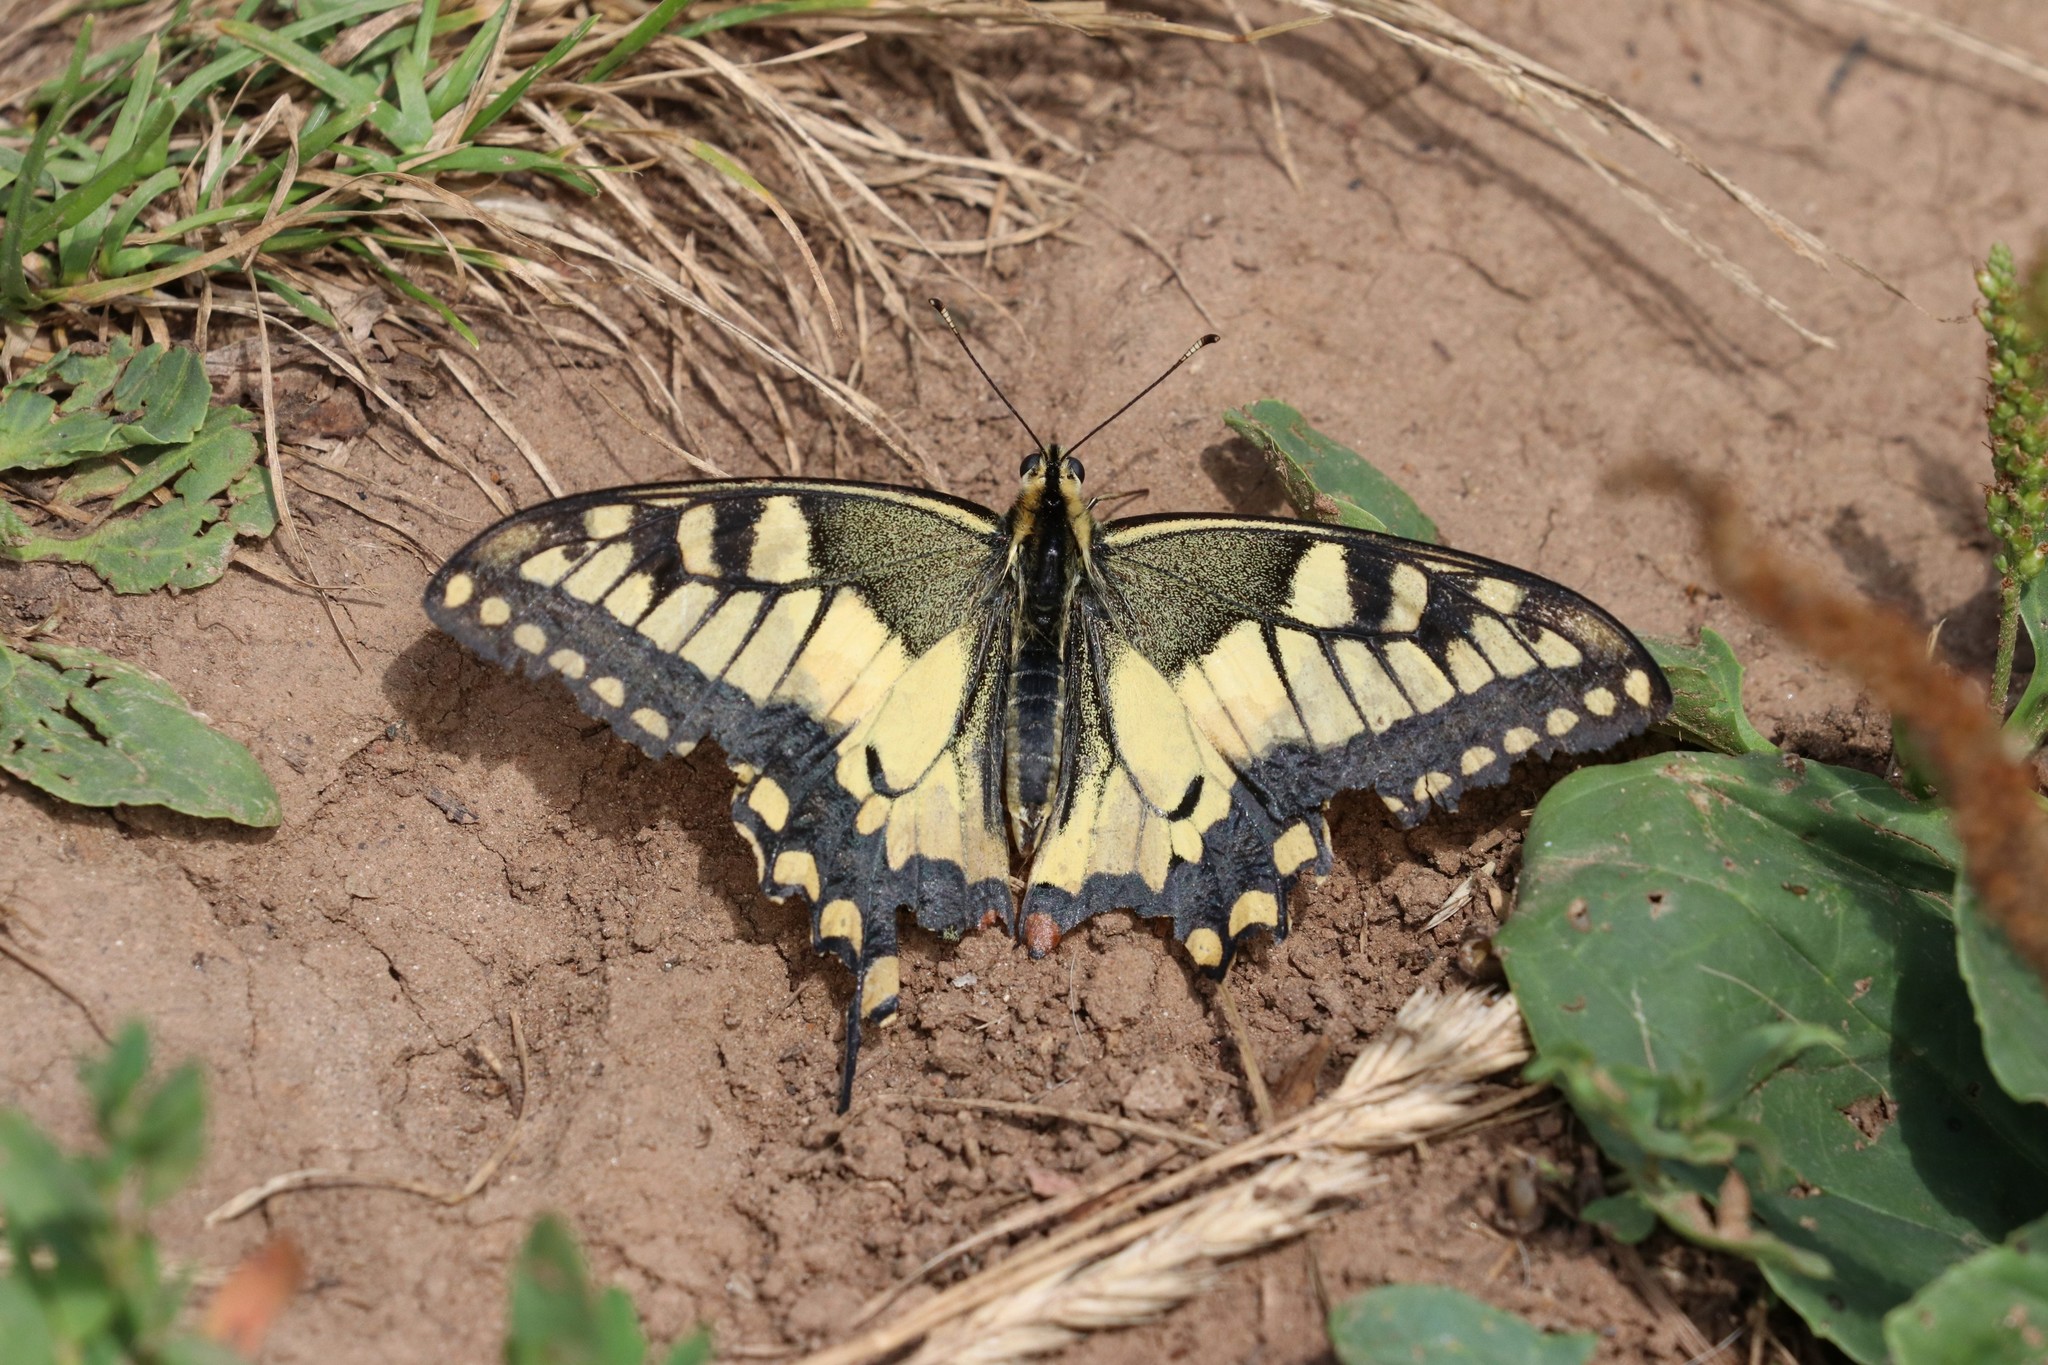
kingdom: Animalia
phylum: Arthropoda
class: Insecta
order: Lepidoptera
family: Papilionidae
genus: Papilio
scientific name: Papilio machaon
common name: Swallowtail
